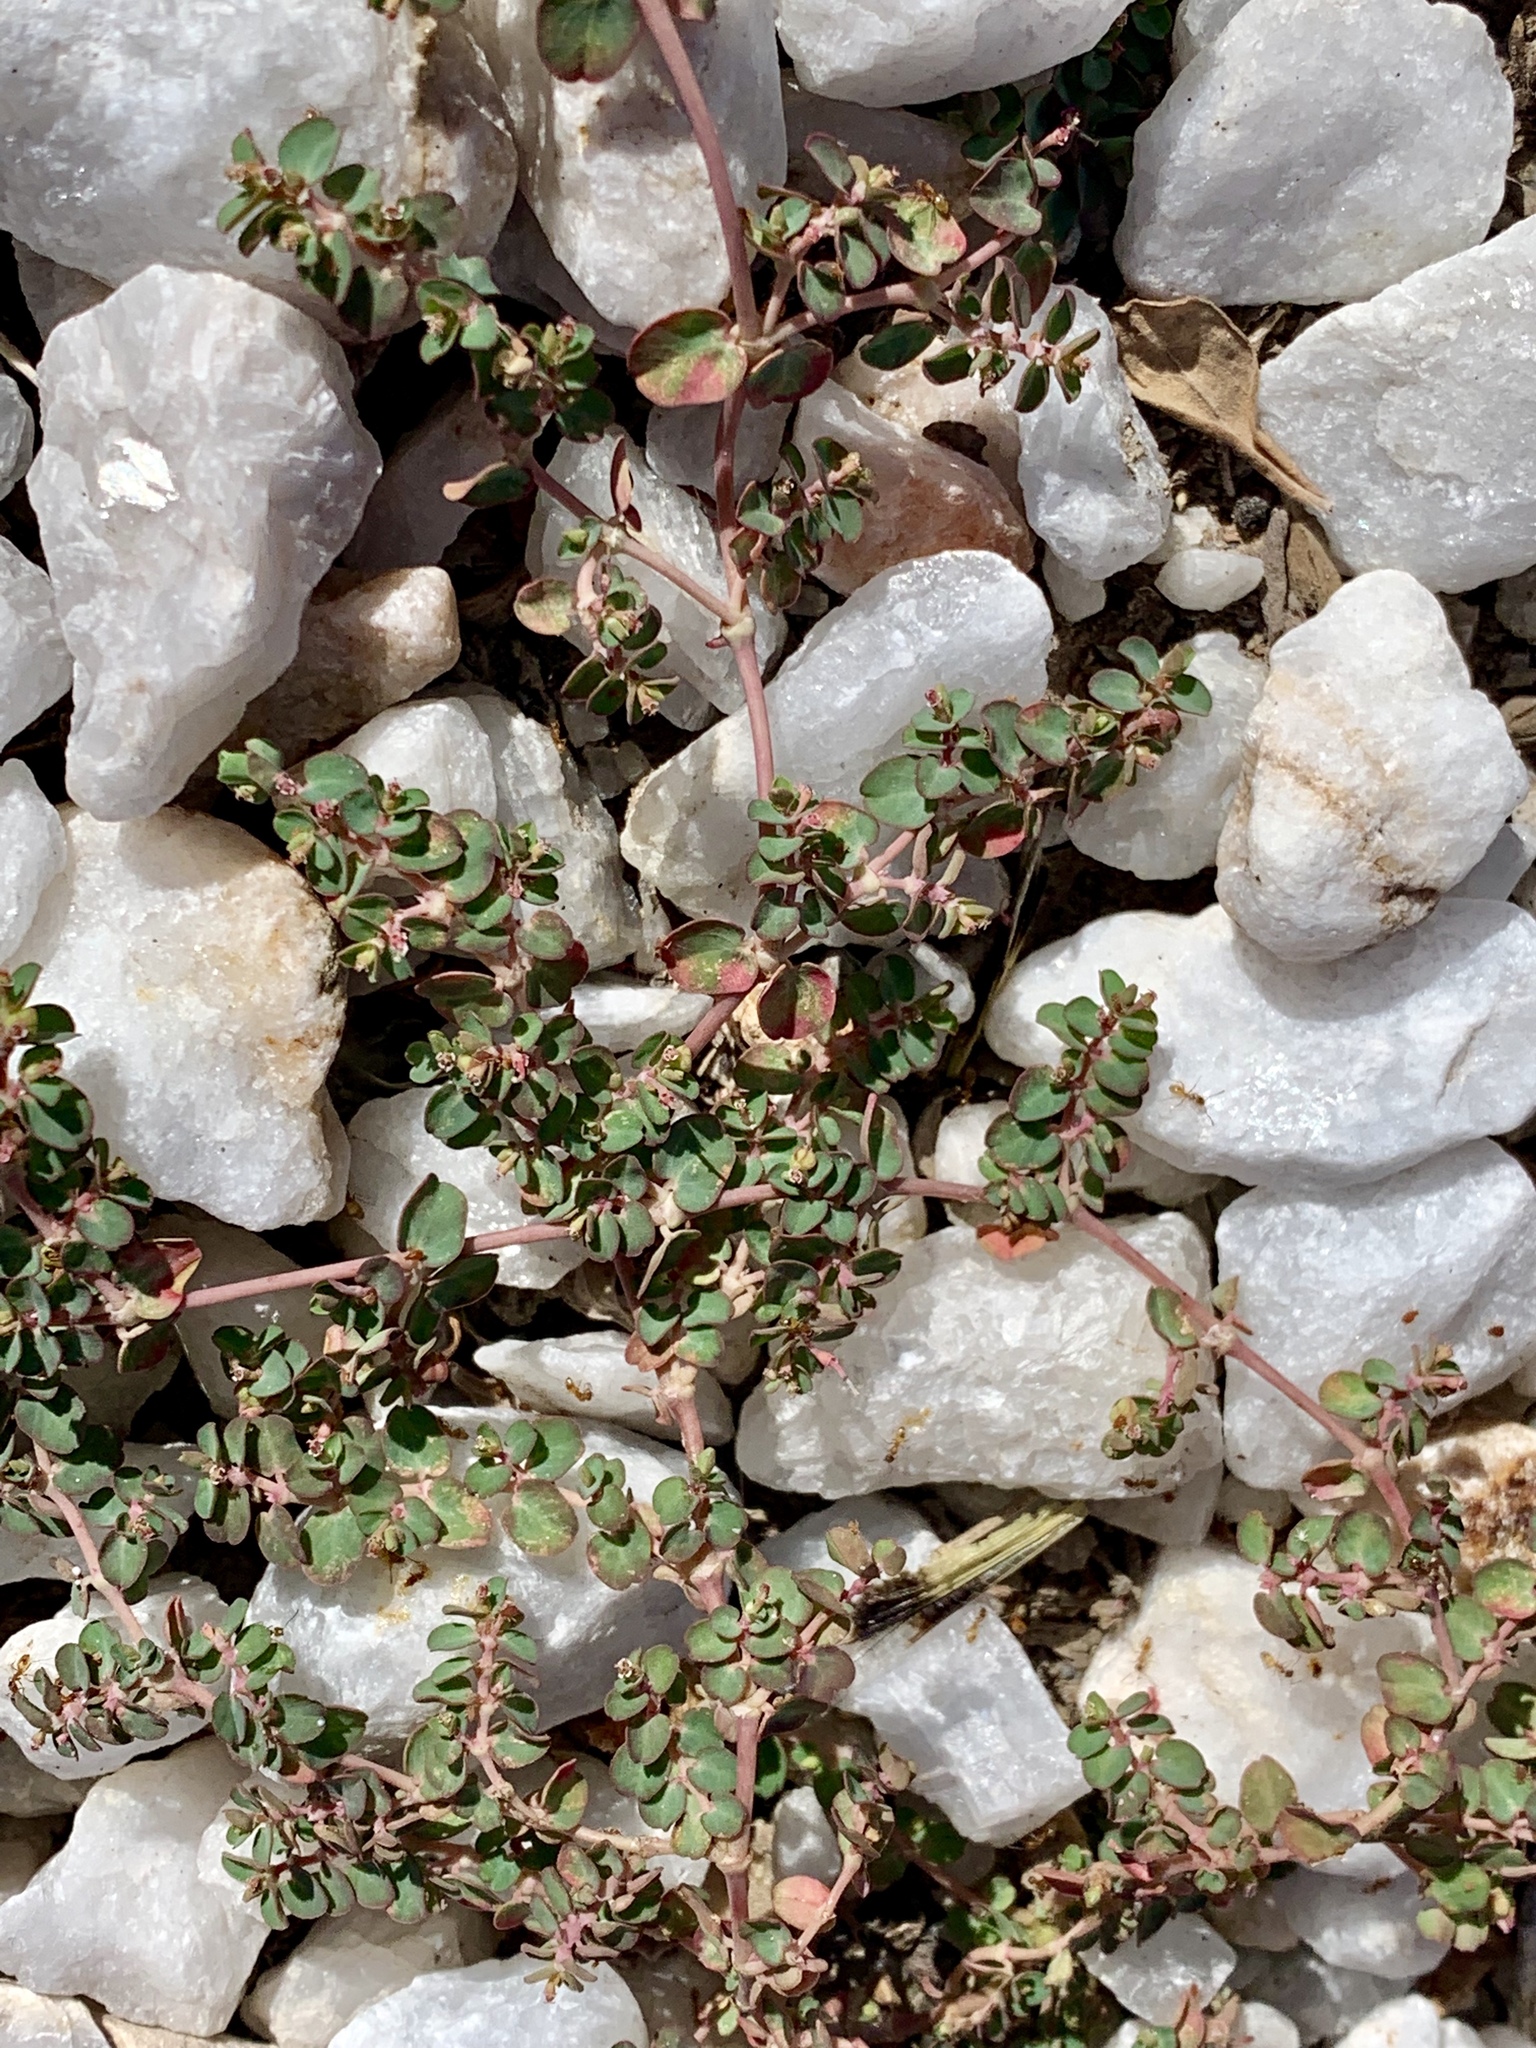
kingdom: Plantae
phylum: Tracheophyta
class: Magnoliopsida
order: Malpighiales
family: Euphorbiaceae
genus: Euphorbia
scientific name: Euphorbia serpens
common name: Matted sandmat
